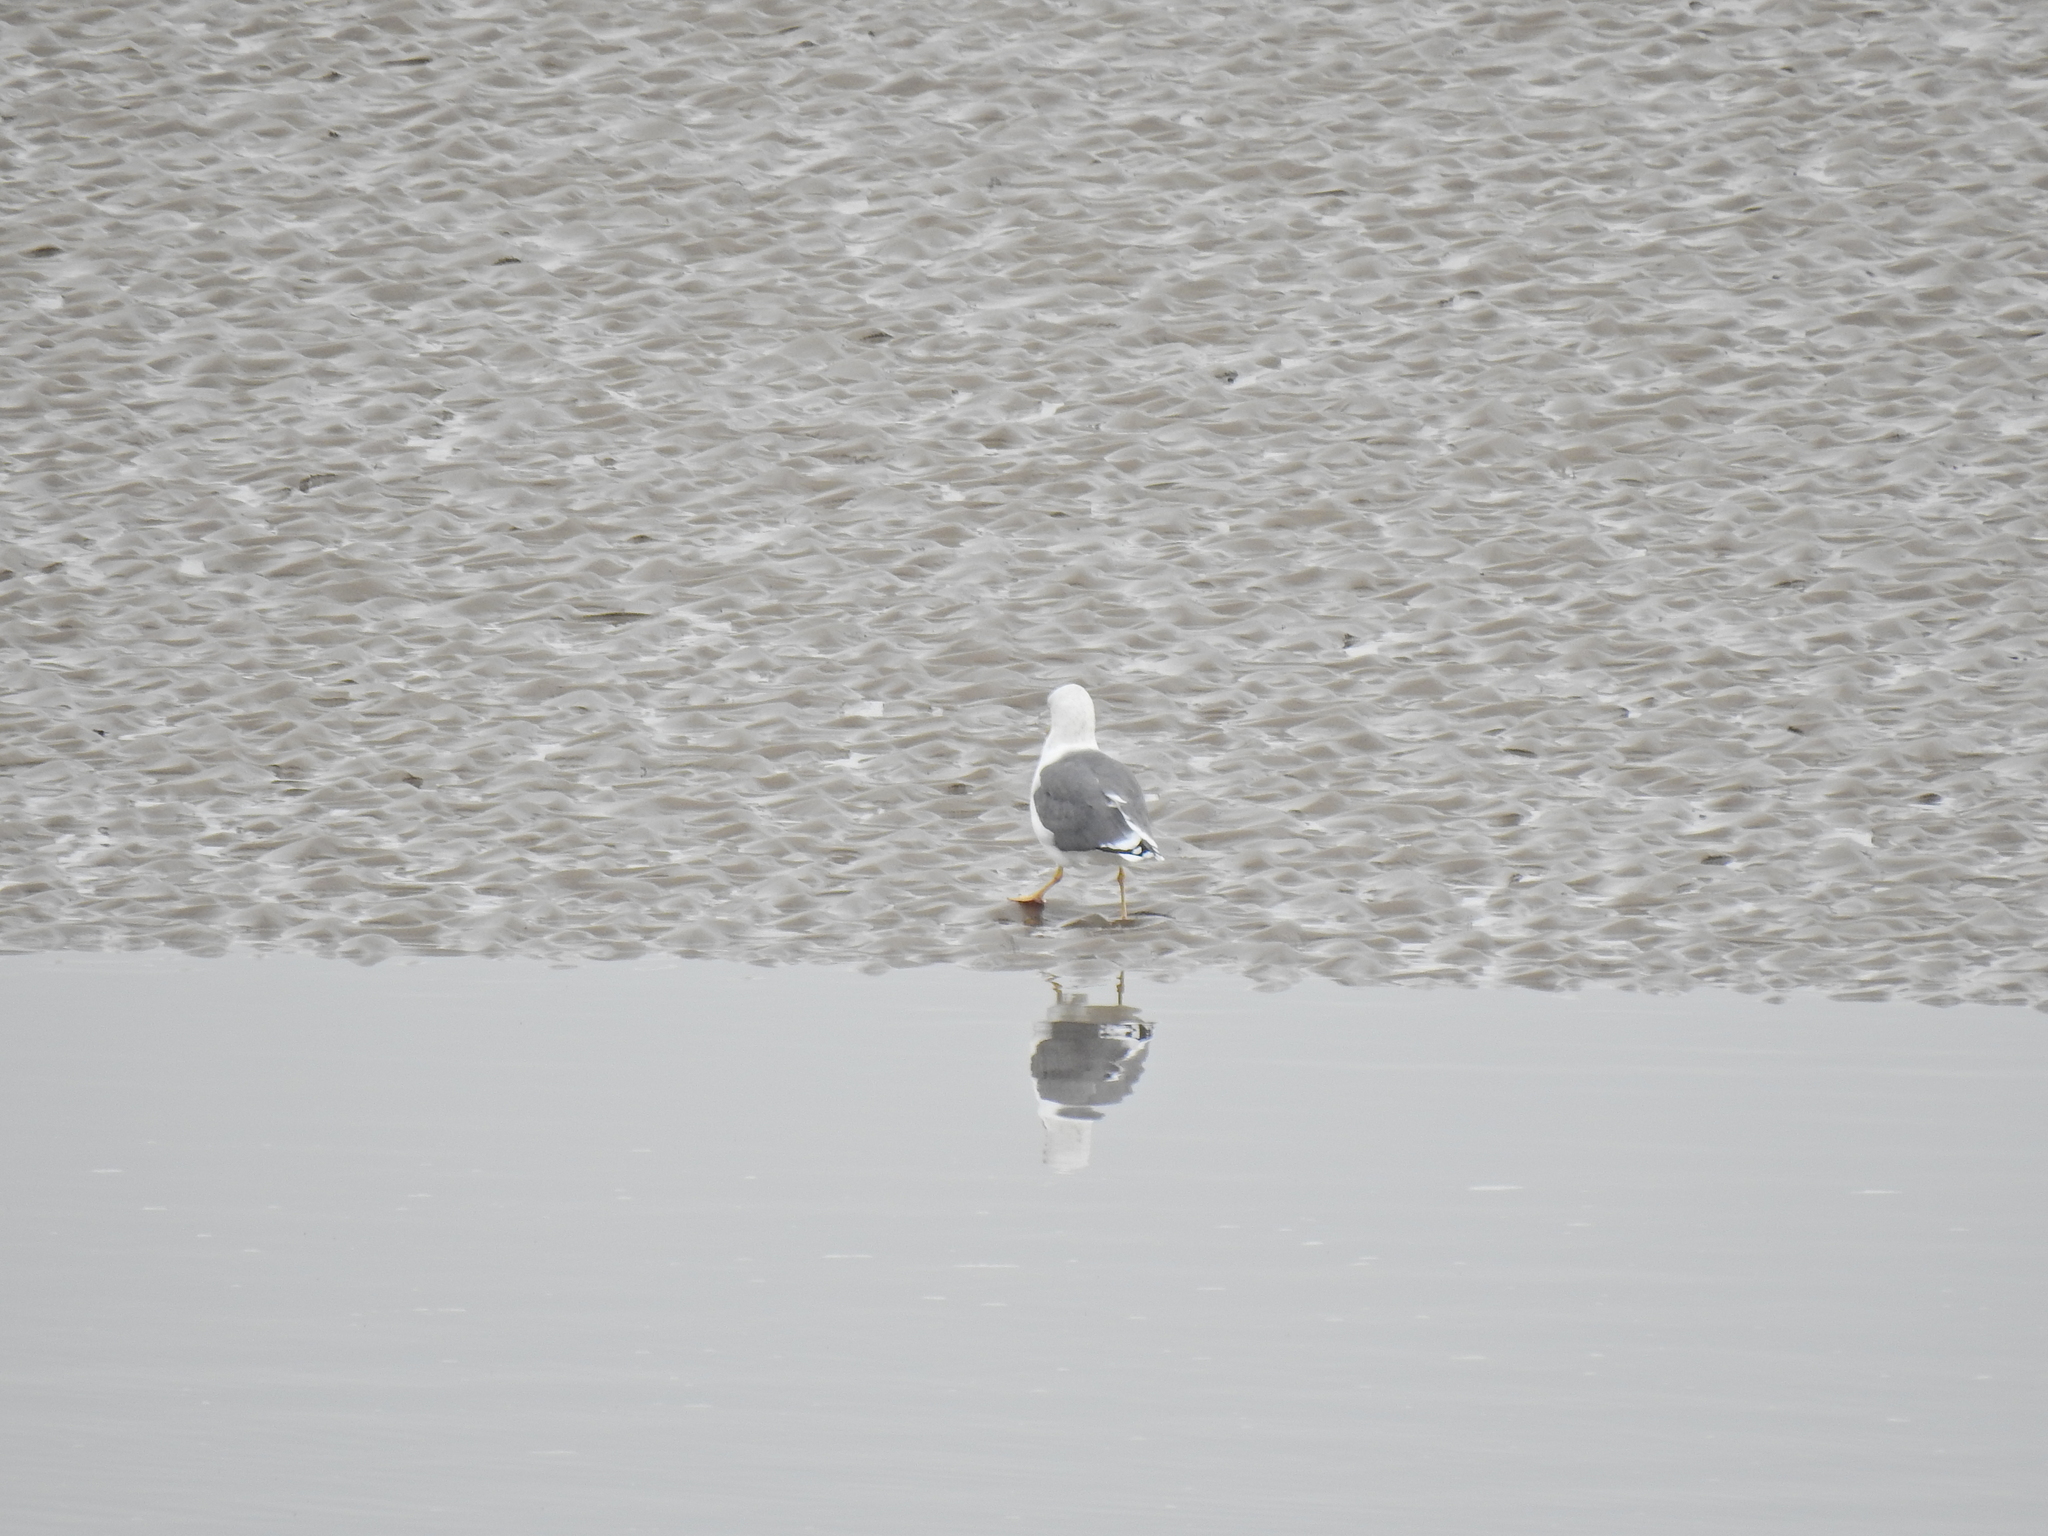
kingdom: Animalia
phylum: Chordata
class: Aves
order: Charadriiformes
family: Laridae
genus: Larus
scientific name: Larus fuscus
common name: Lesser black-backed gull
